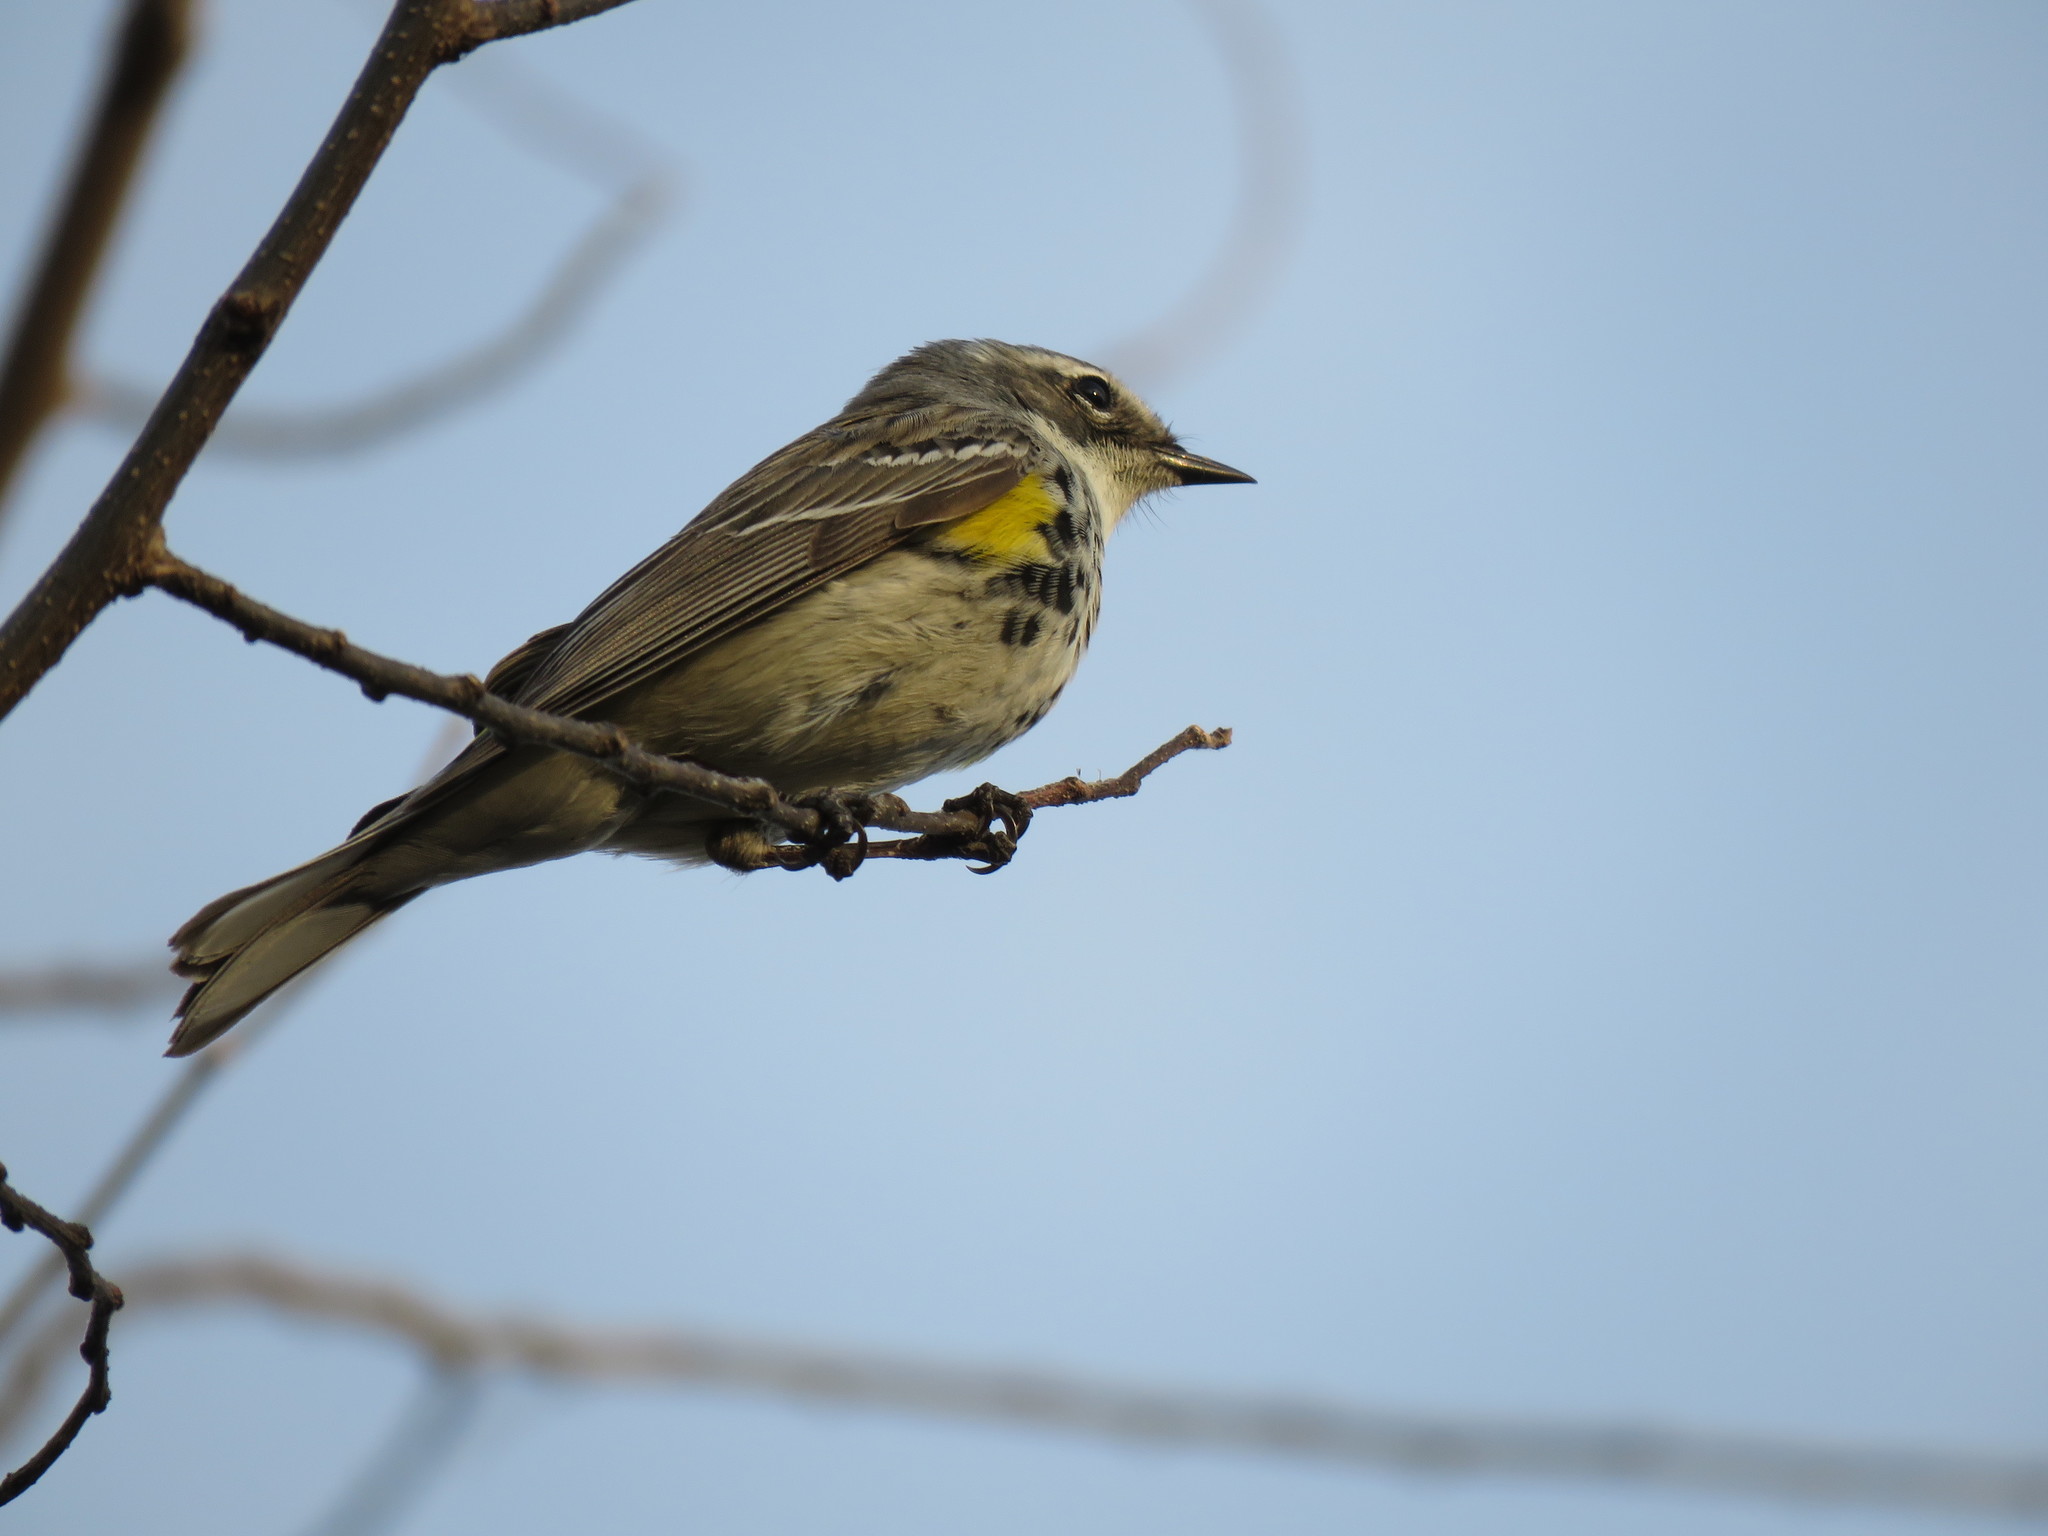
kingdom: Animalia
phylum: Chordata
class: Aves
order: Passeriformes
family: Parulidae
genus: Setophaga
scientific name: Setophaga coronata
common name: Myrtle warbler
